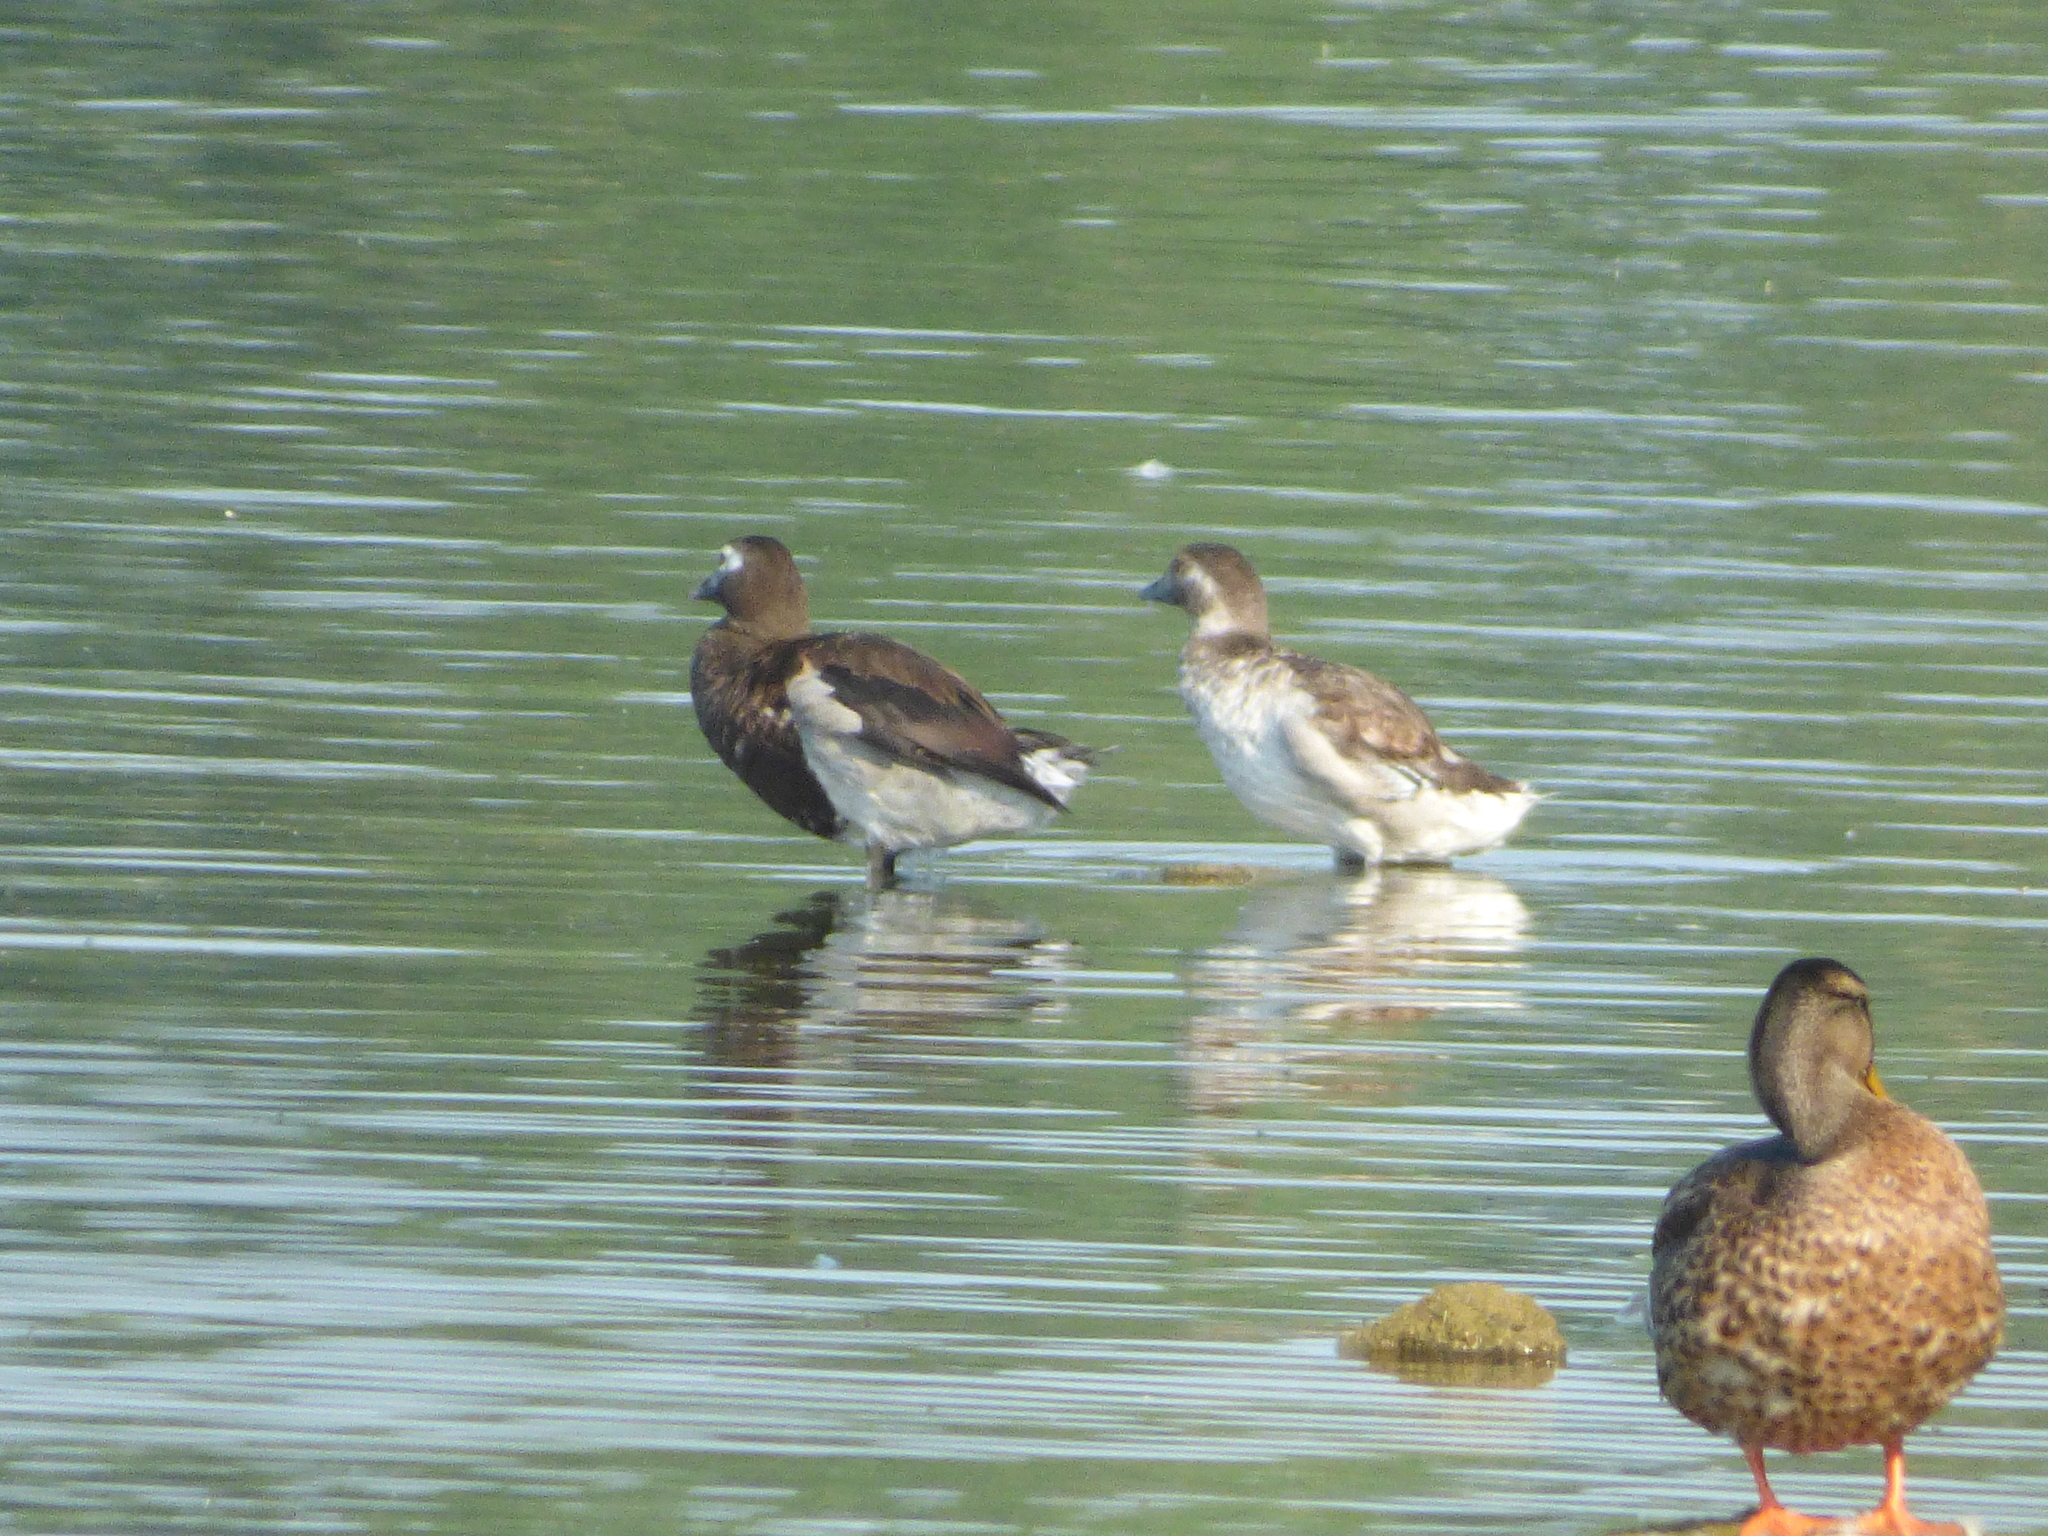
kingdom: Animalia
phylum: Chordata
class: Aves
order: Anseriformes
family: Anatidae
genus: Clangula
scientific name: Clangula hyemalis
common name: Long-tailed duck
